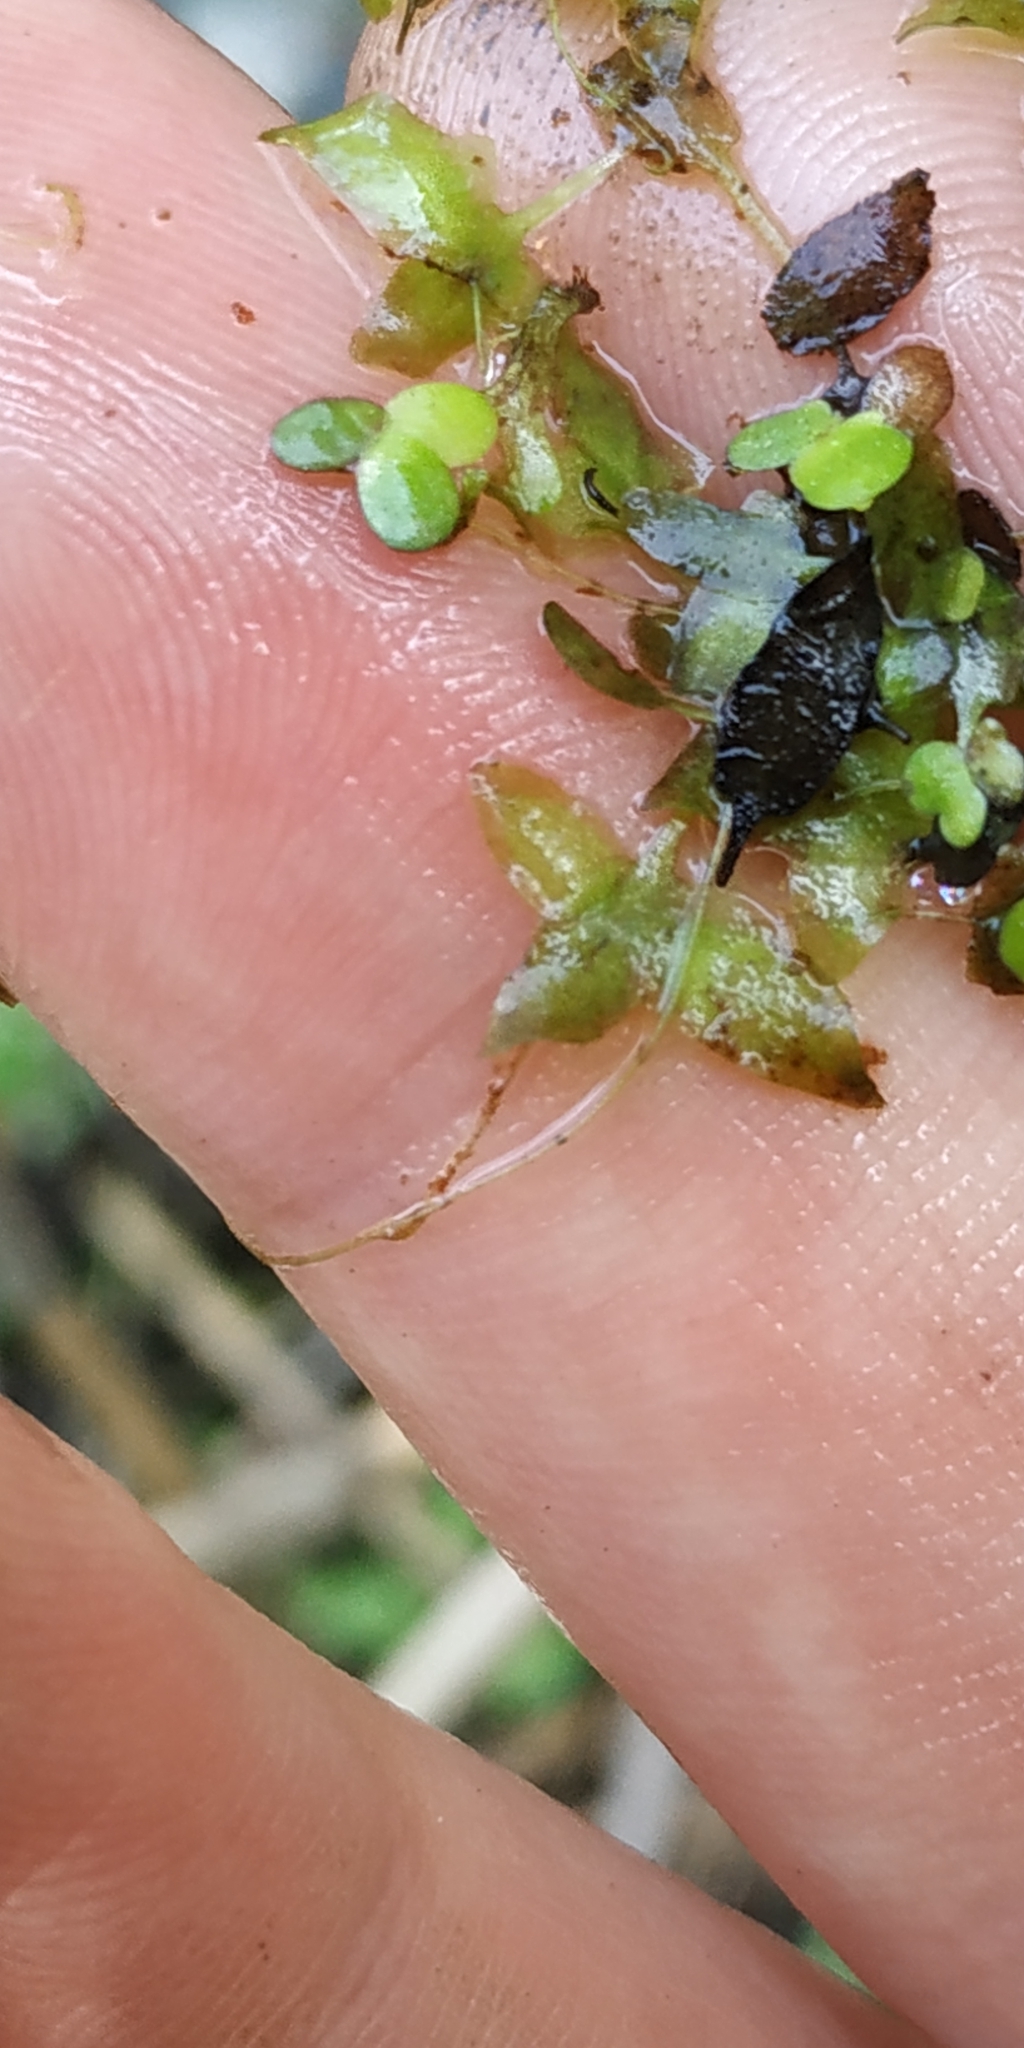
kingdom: Plantae
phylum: Tracheophyta
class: Liliopsida
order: Alismatales
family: Araceae
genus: Lemna
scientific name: Lemna minor
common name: Common duckweed
